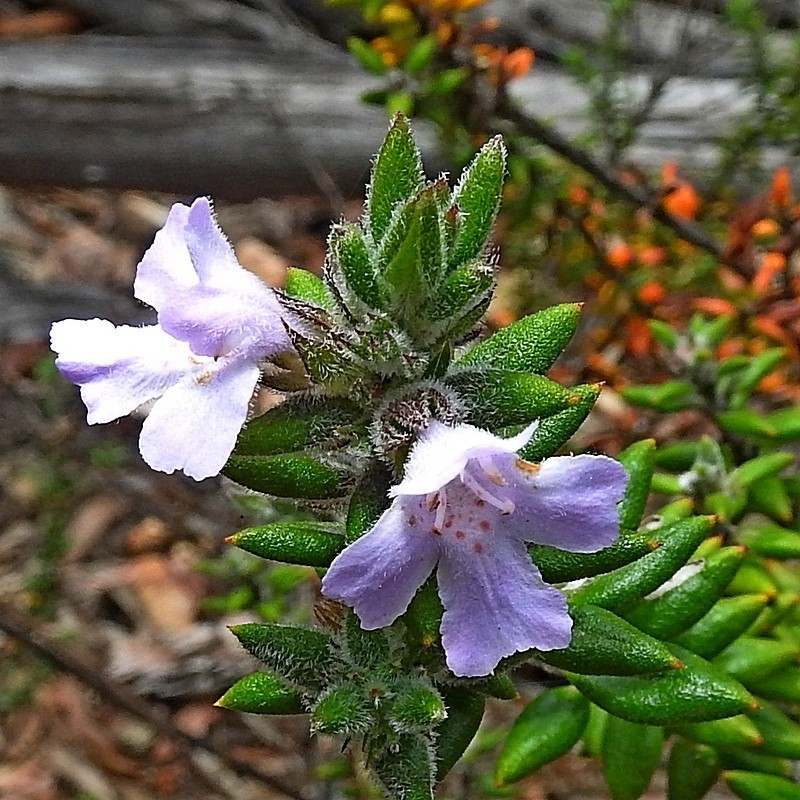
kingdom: Plantae
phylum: Tracheophyta
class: Magnoliopsida
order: Lamiales
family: Lamiaceae
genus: Westringia
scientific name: Westringia davidii
